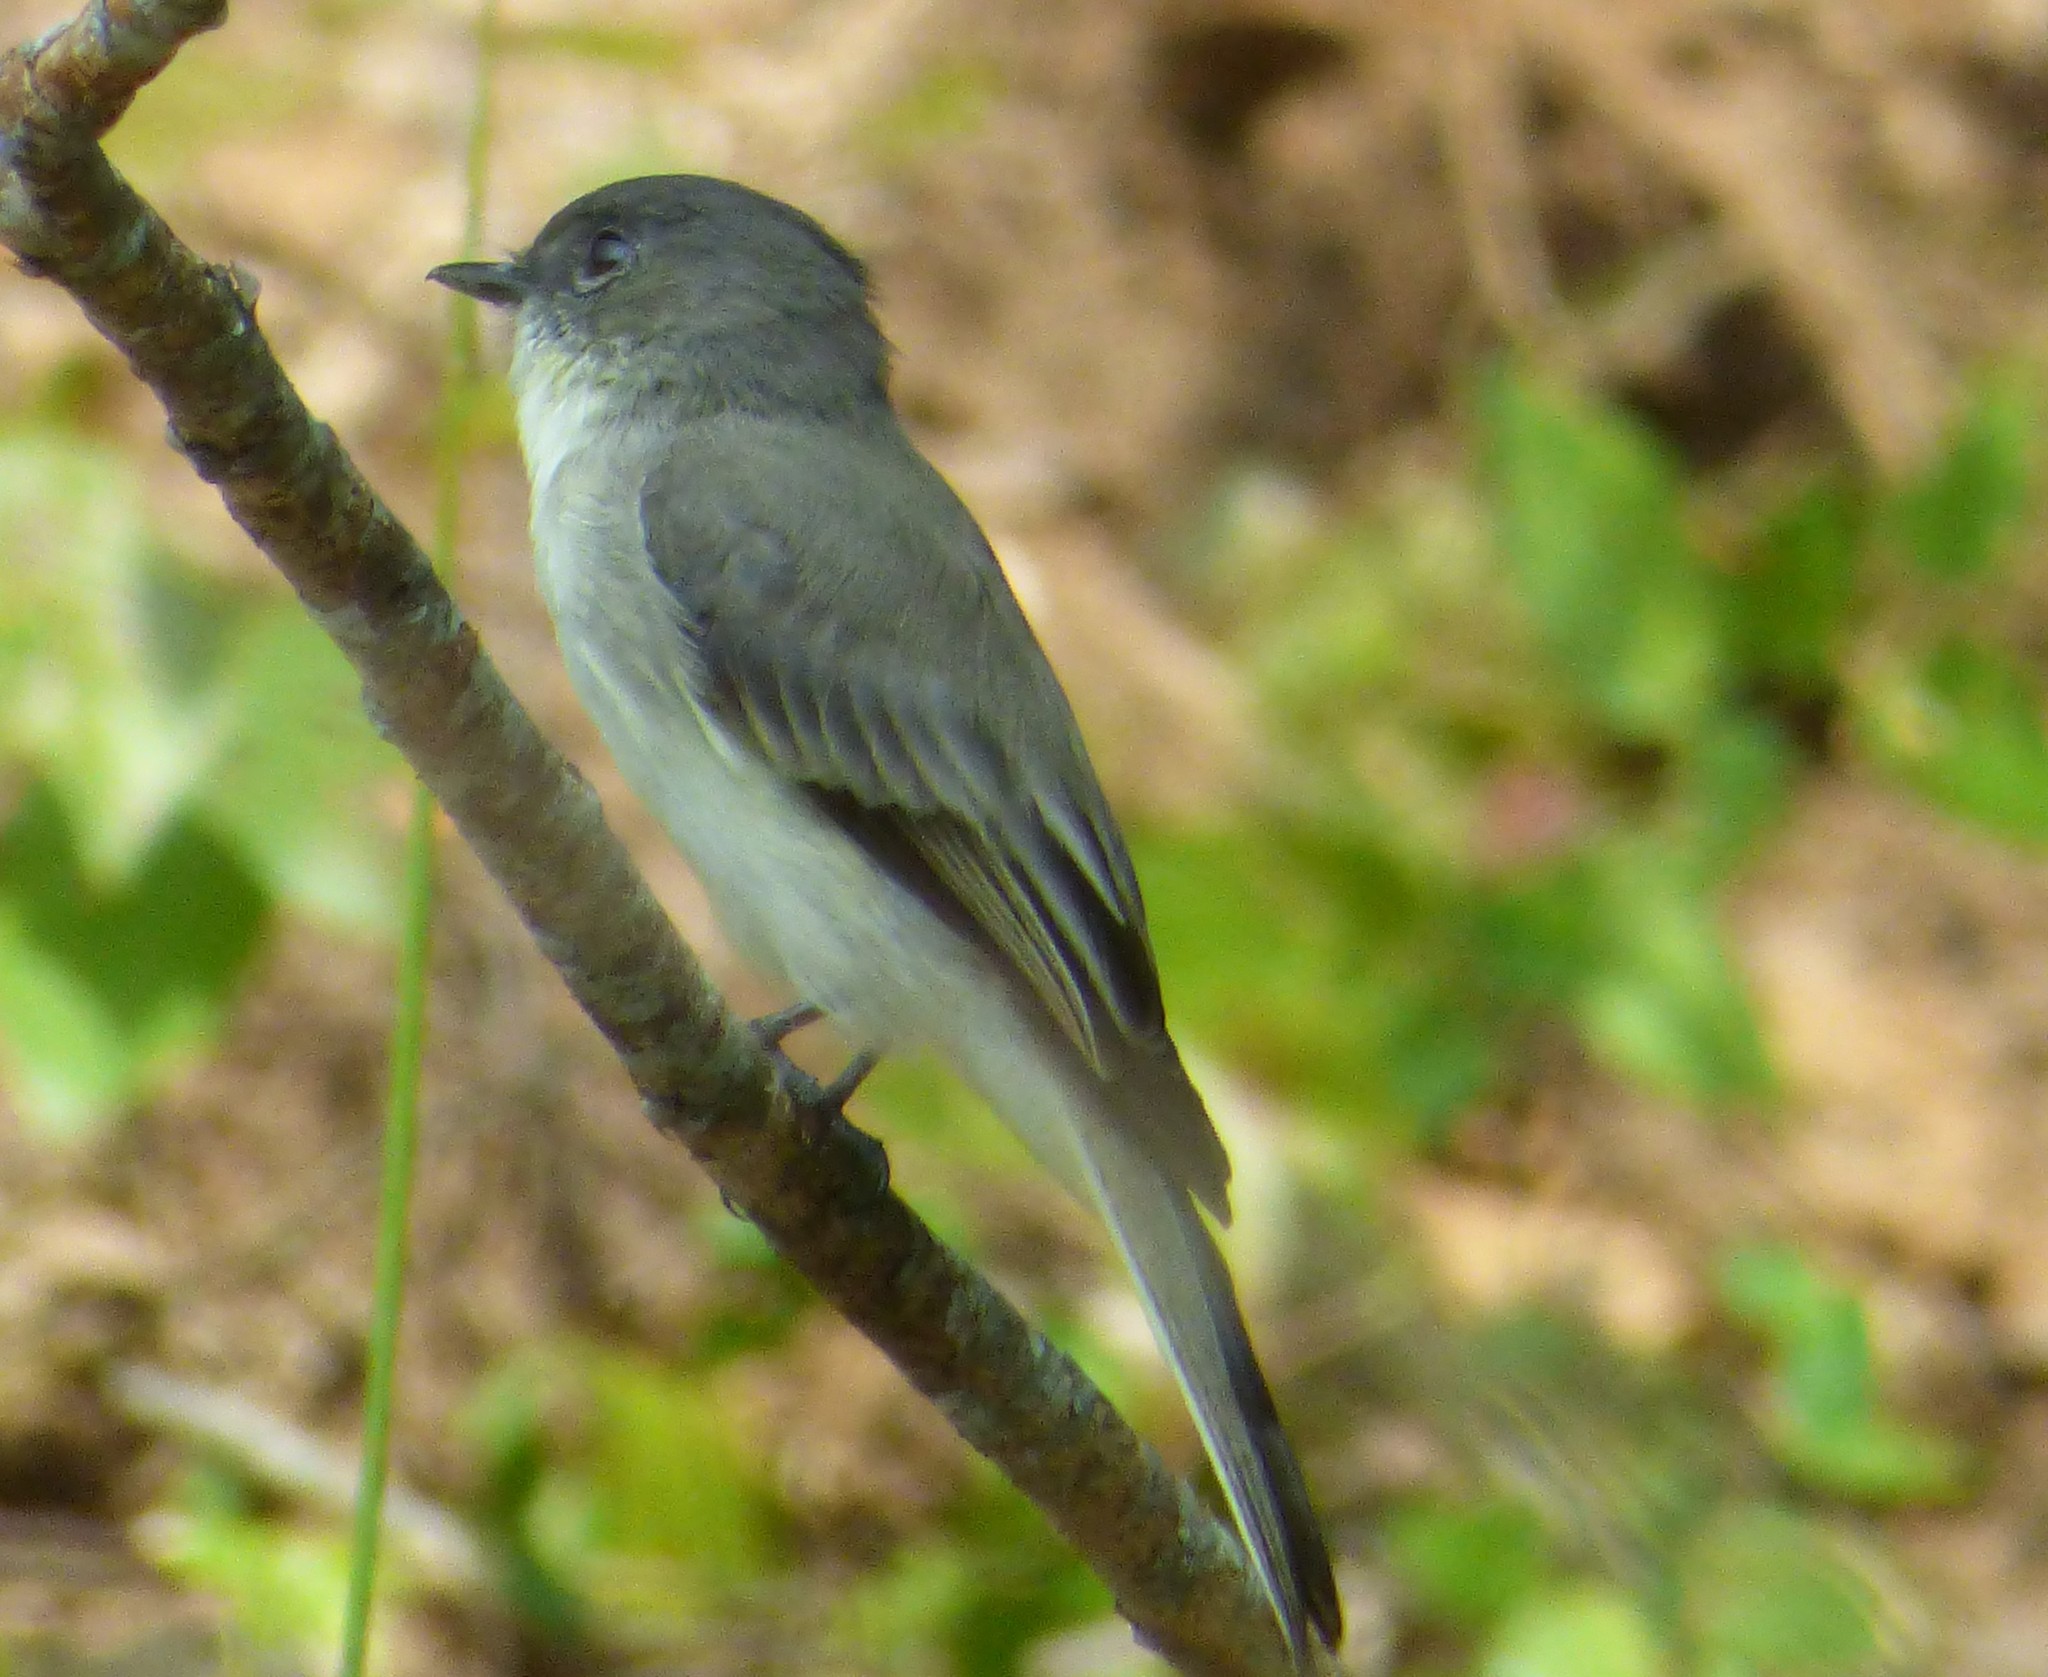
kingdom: Animalia
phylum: Chordata
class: Aves
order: Passeriformes
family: Tyrannidae
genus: Sayornis
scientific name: Sayornis phoebe
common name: Eastern phoebe
